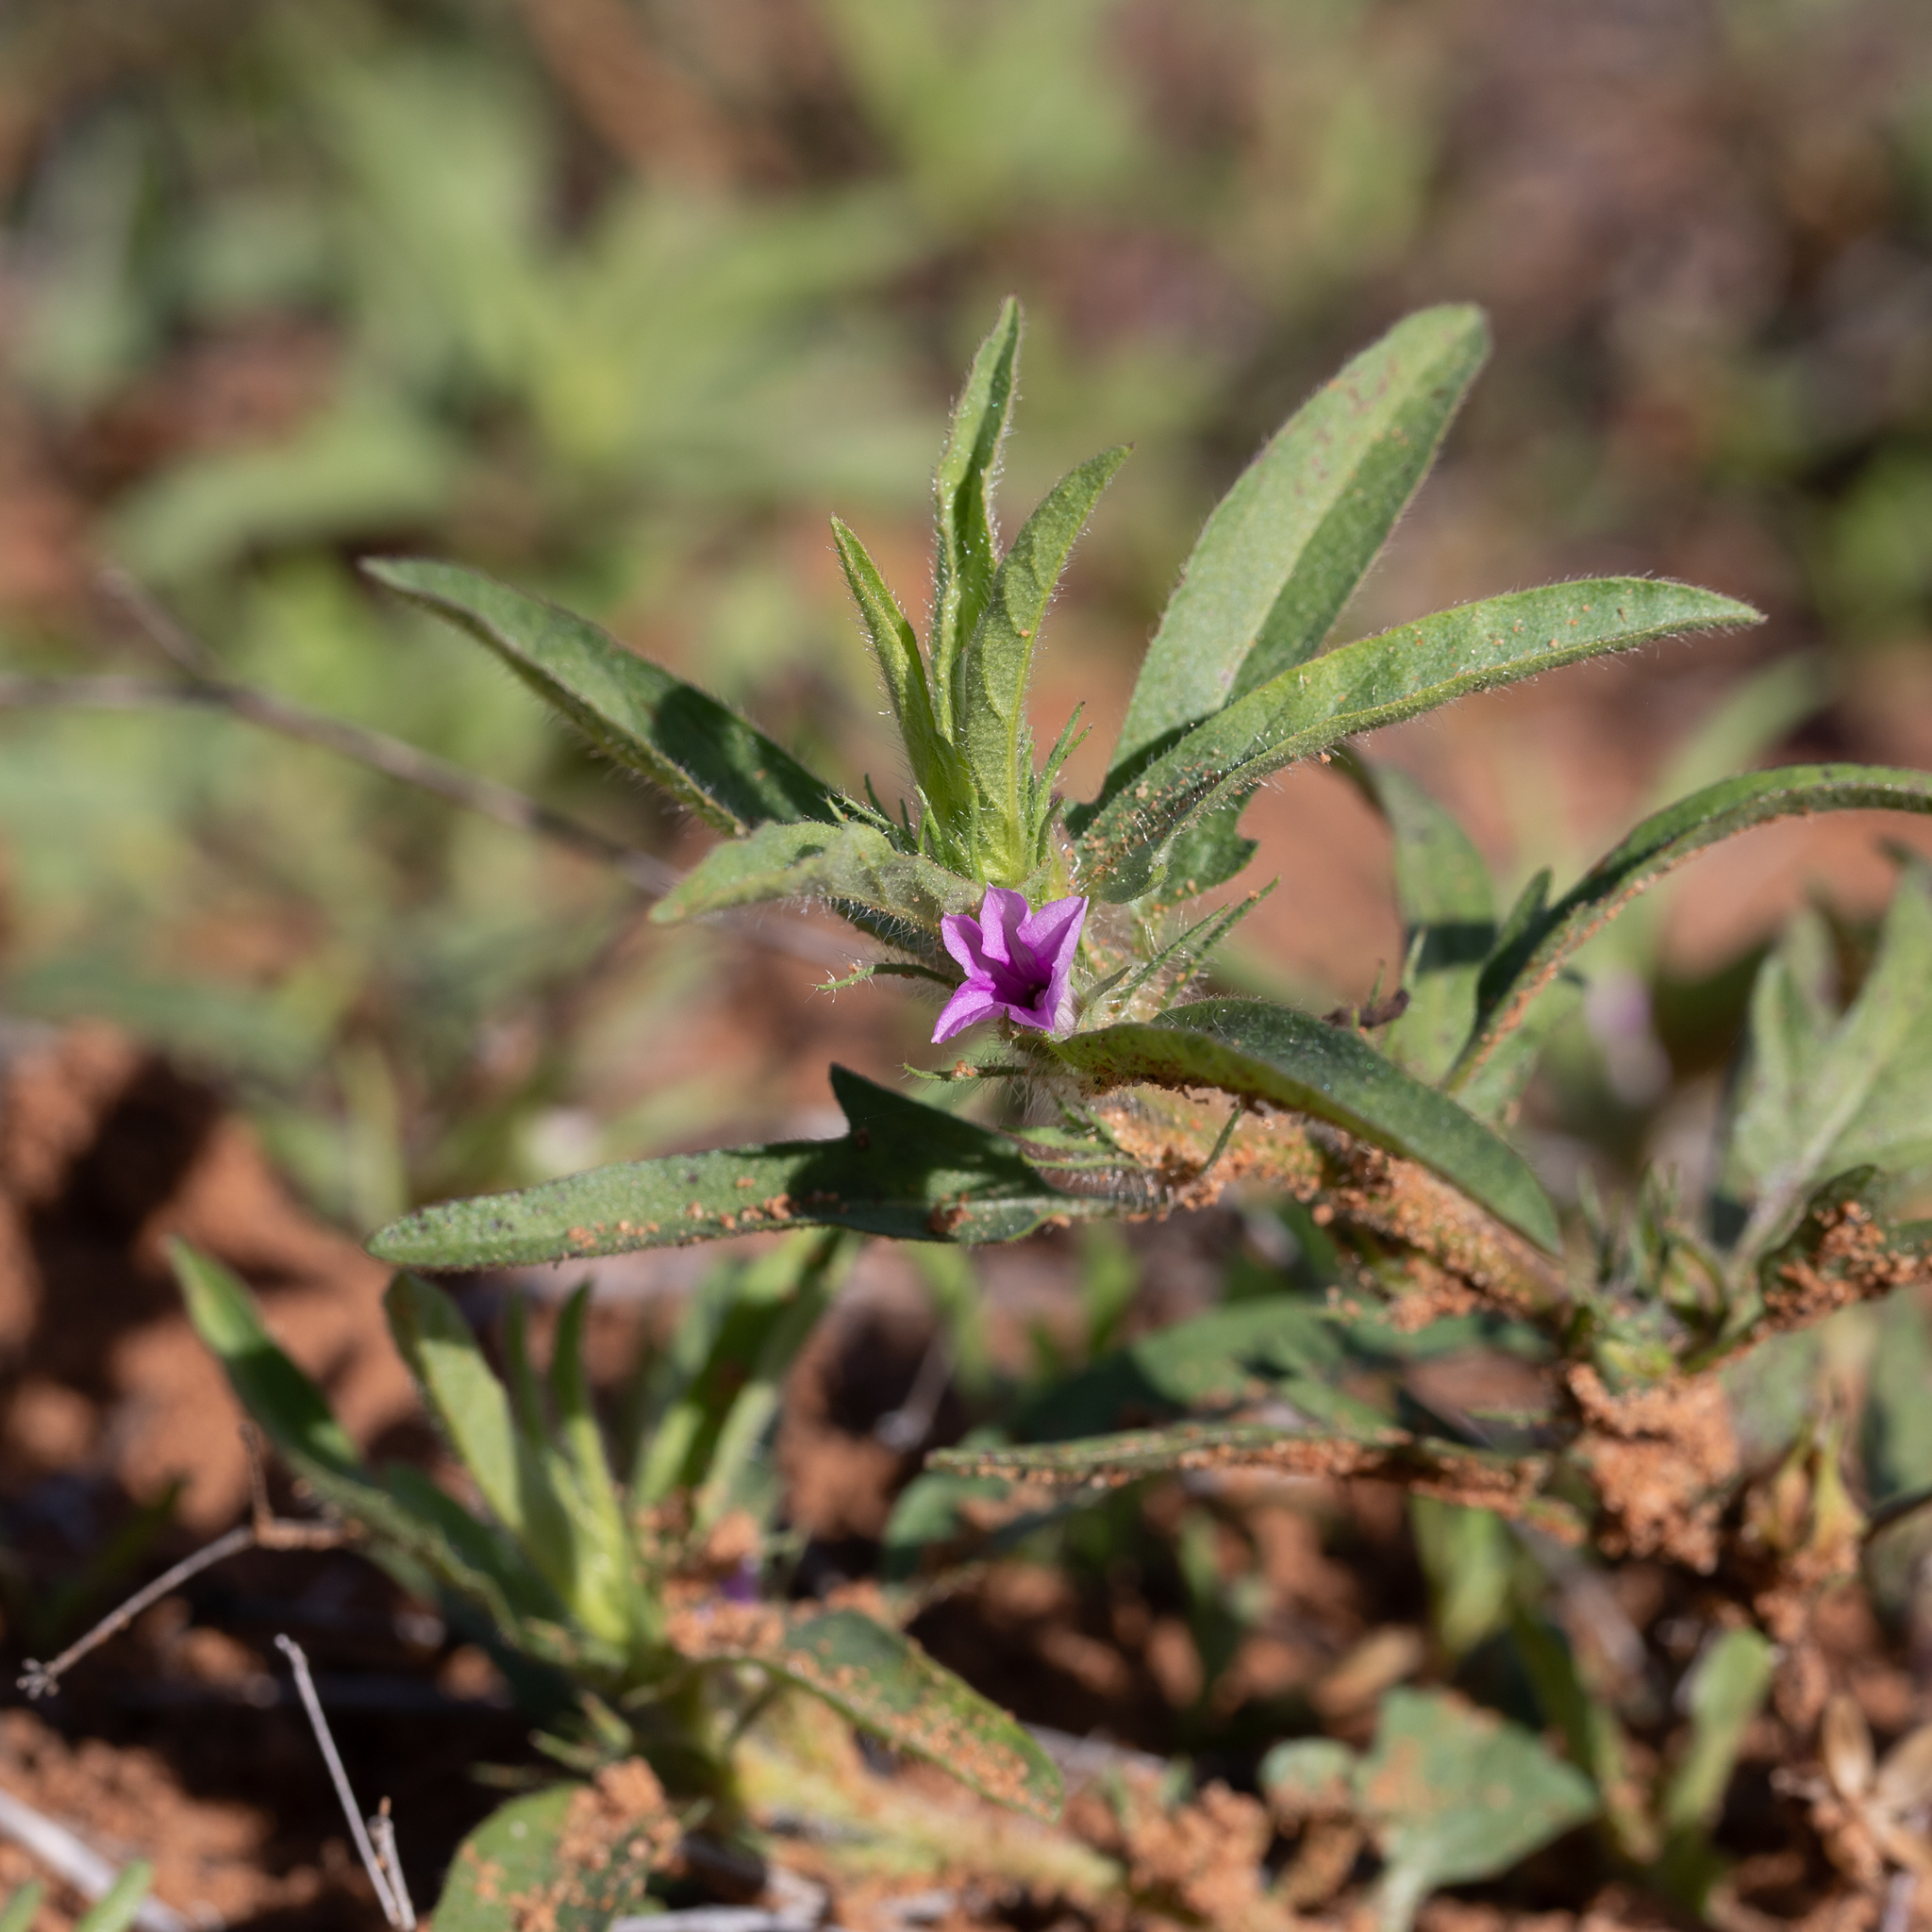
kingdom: Plantae
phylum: Tracheophyta
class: Magnoliopsida
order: Solanales
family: Convolvulaceae
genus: Ipomoea
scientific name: Ipomoea polymorpha
